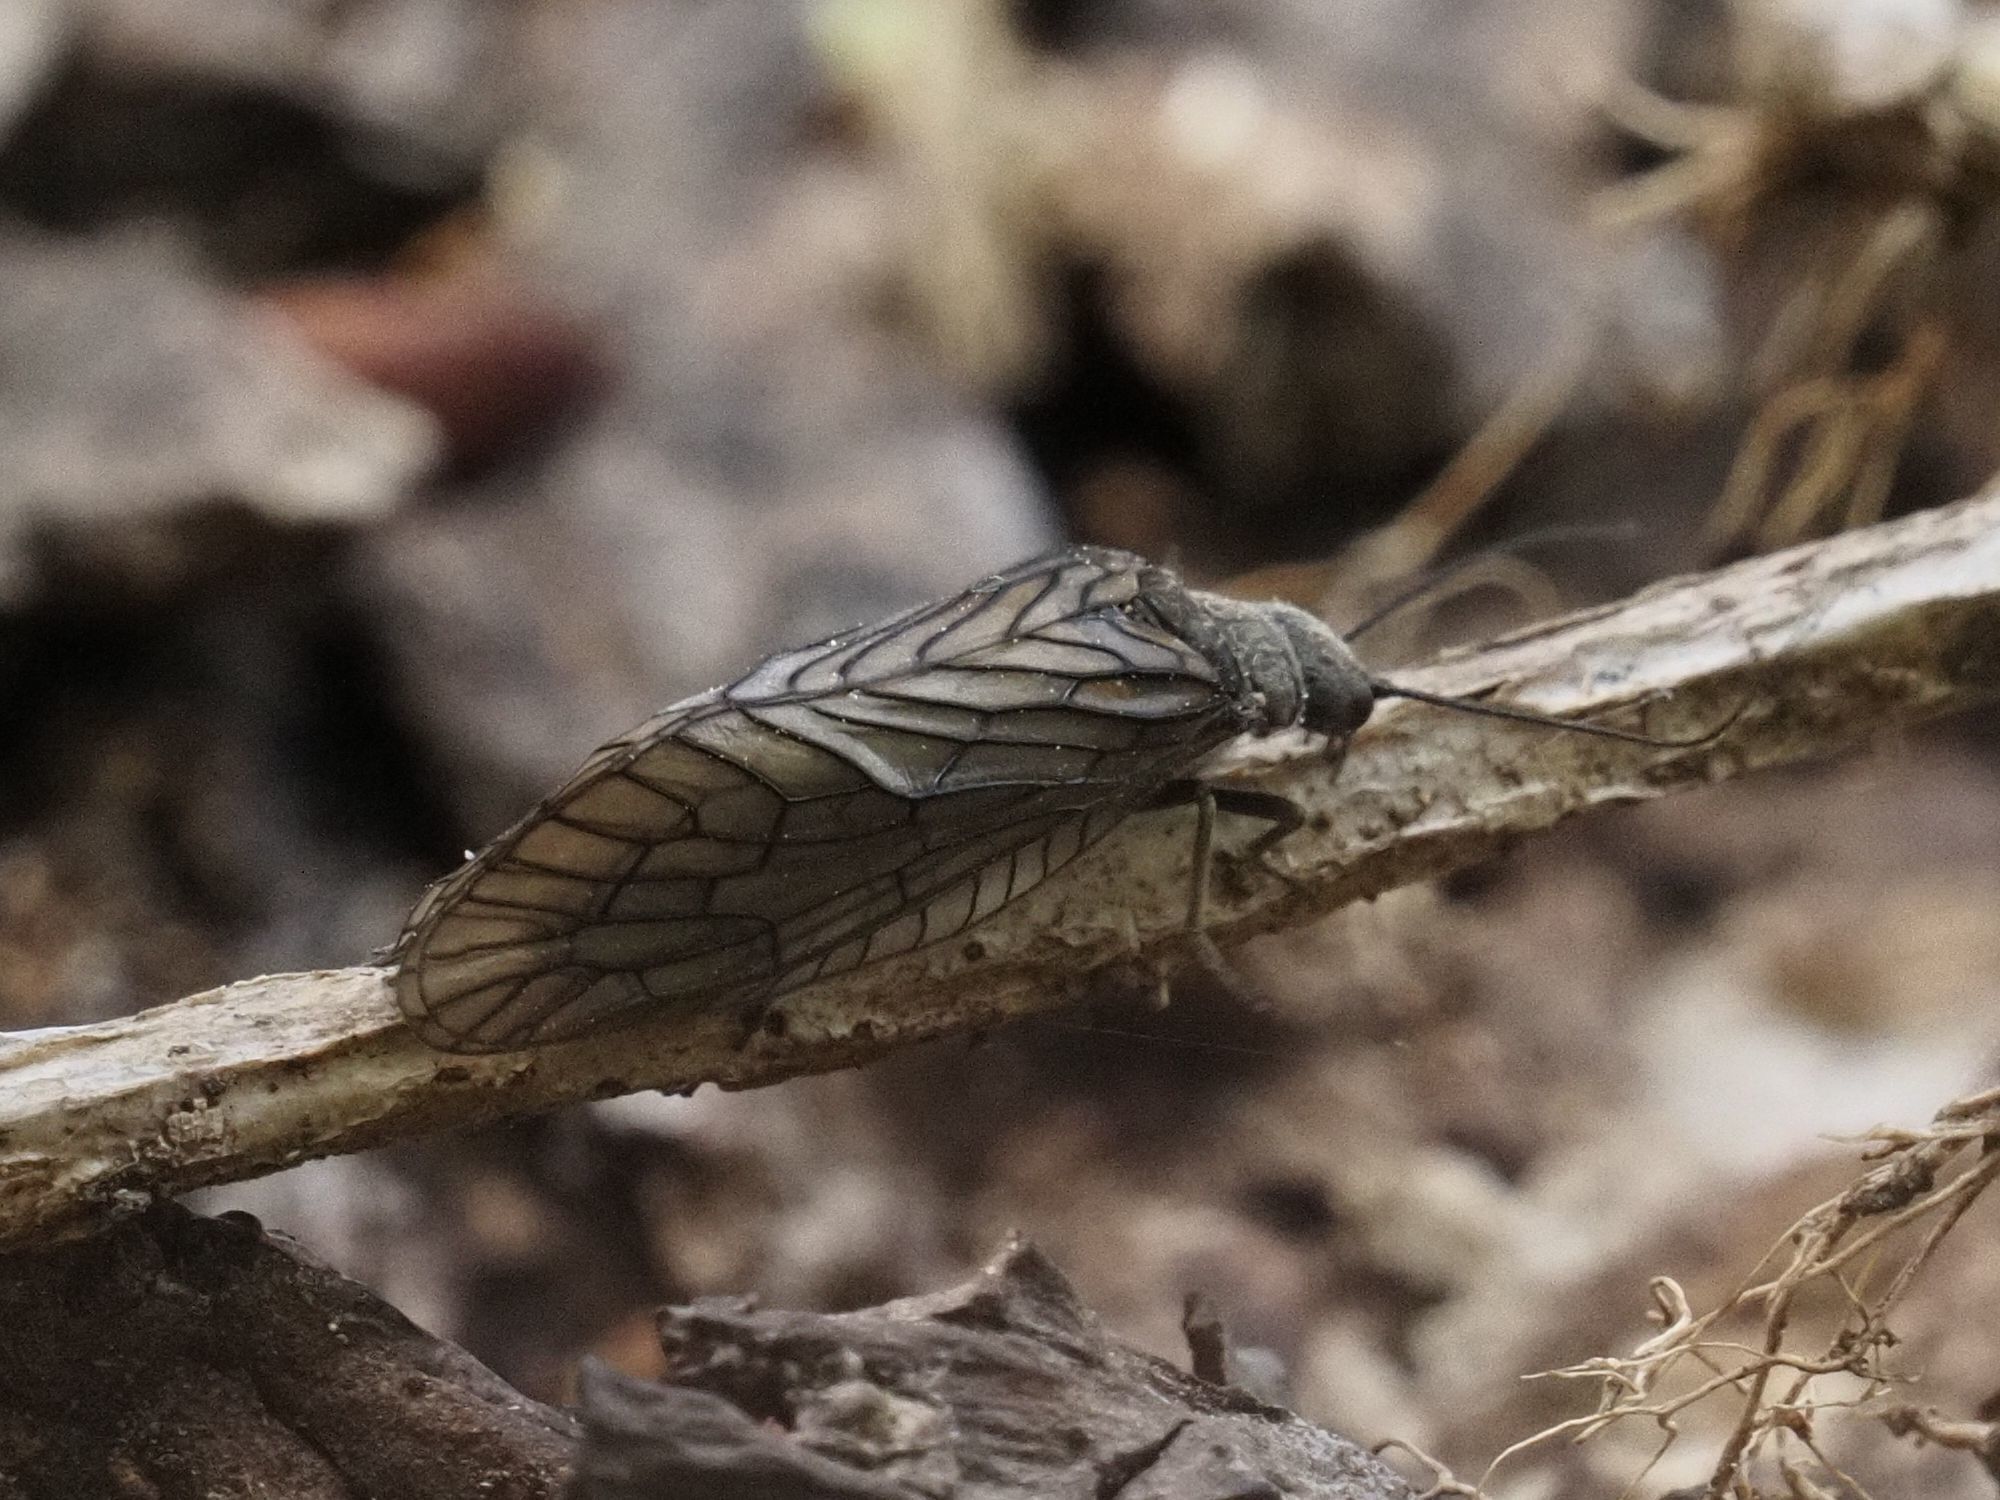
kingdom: Animalia
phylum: Arthropoda
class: Insecta
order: Megaloptera
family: Sialidae
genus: Sialis
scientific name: Sialis
